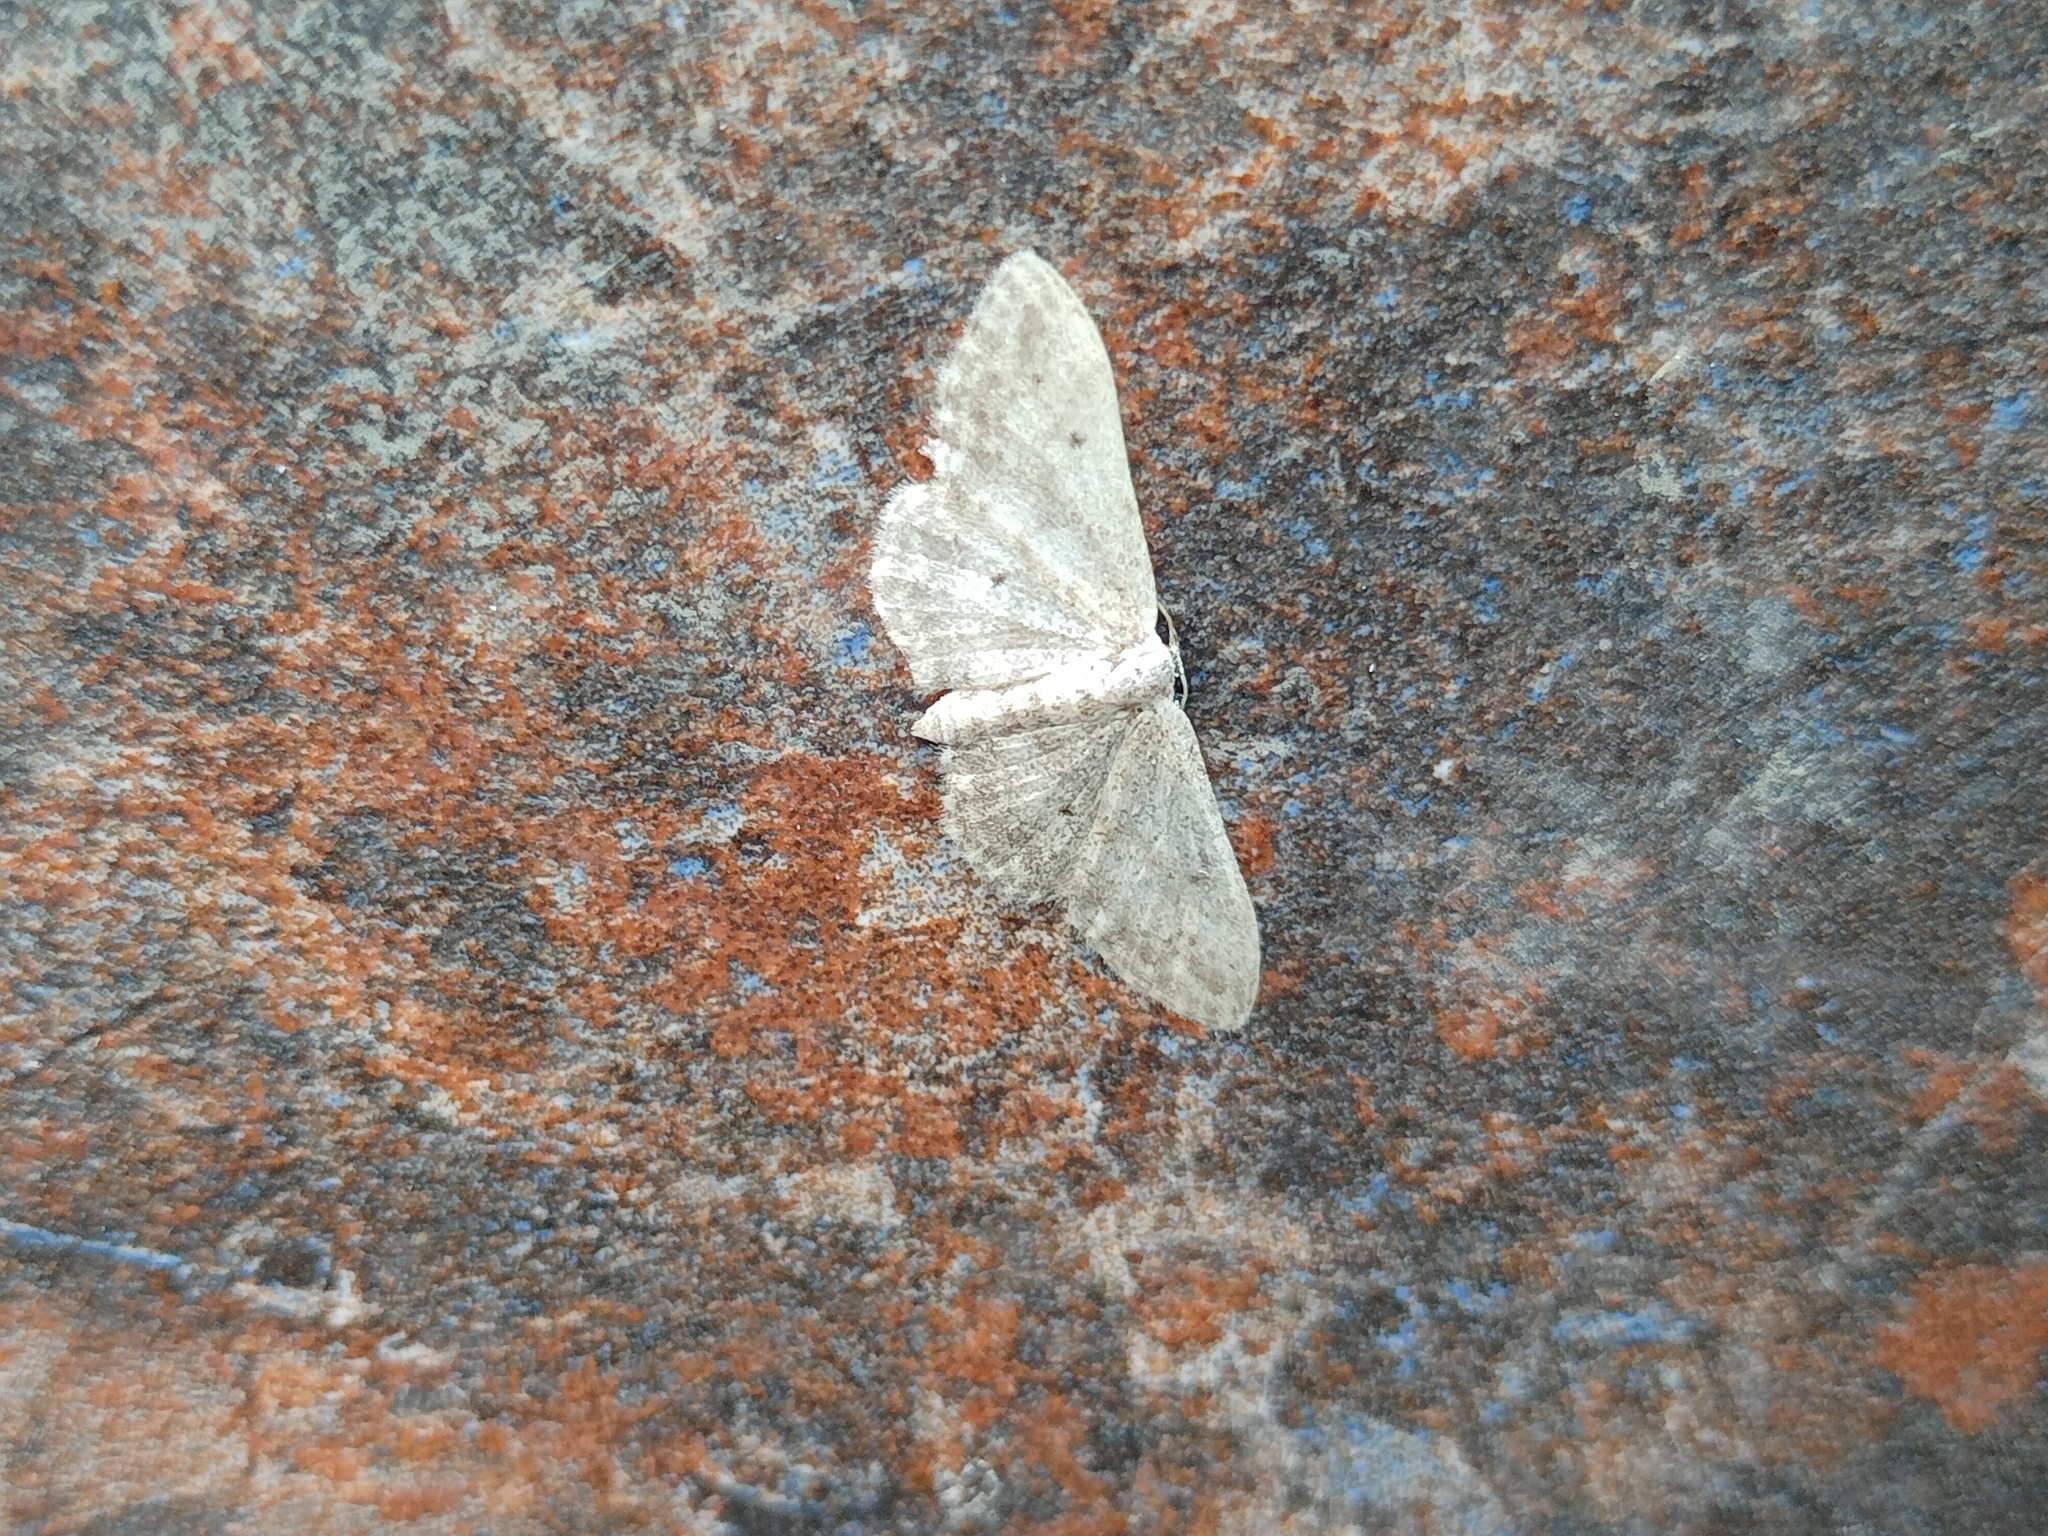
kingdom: Animalia
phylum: Arthropoda
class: Insecta
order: Lepidoptera
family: Geometridae
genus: Idaea
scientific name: Idaea seriata
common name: Small dusty wave
